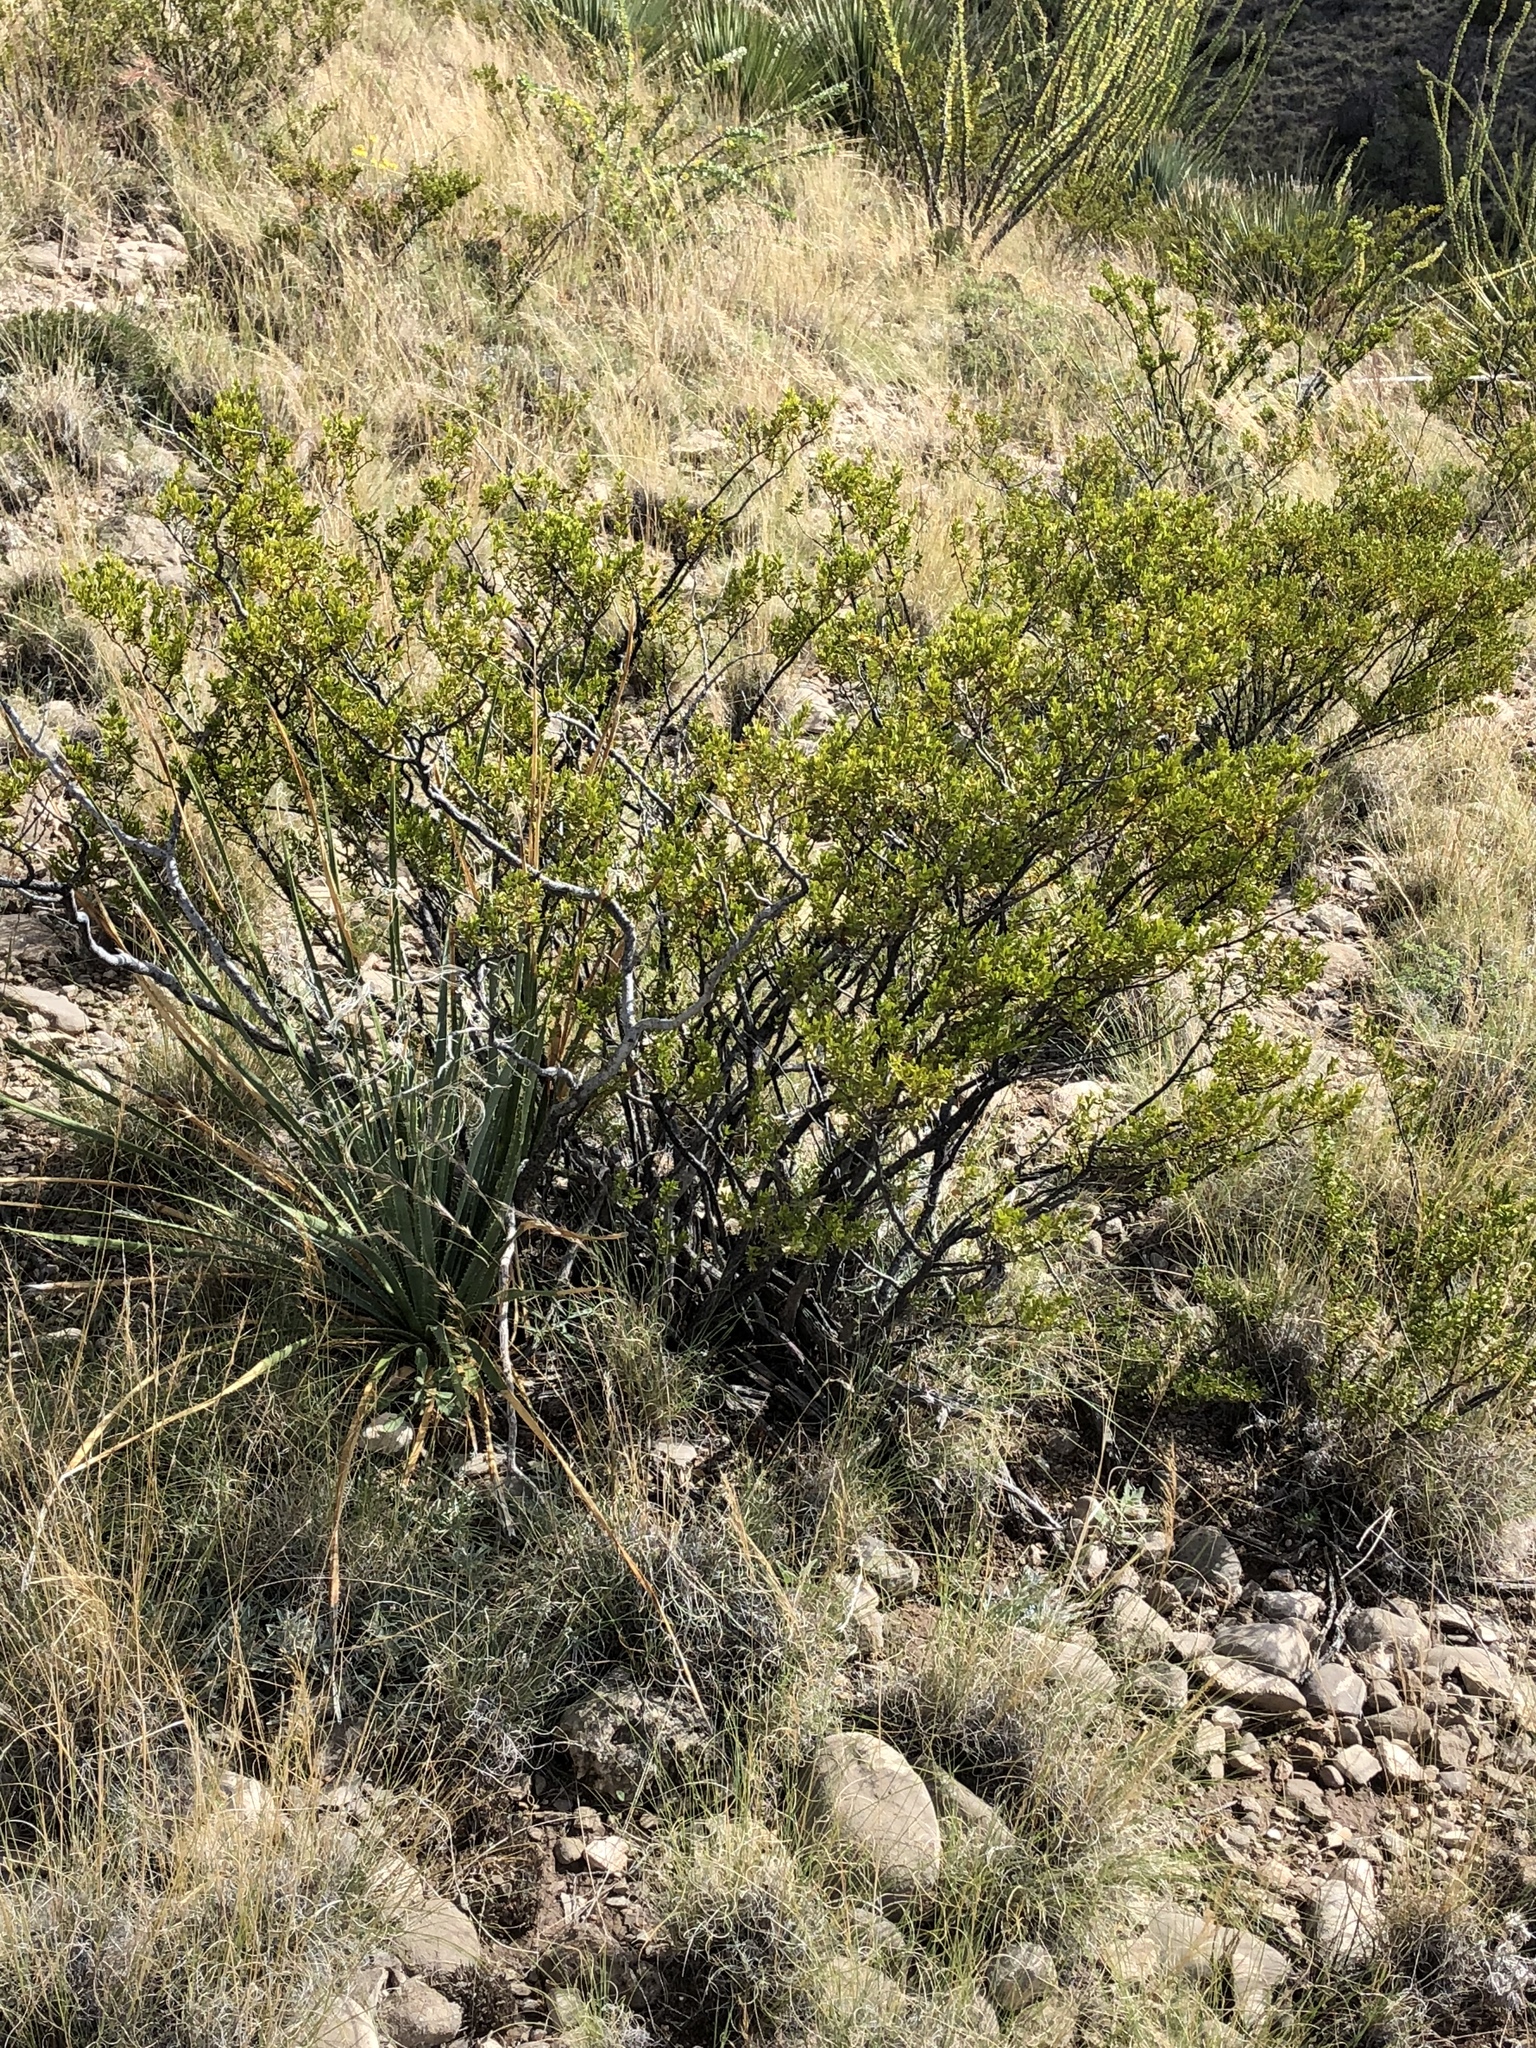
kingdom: Plantae
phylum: Tracheophyta
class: Magnoliopsida
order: Zygophyllales
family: Zygophyllaceae
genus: Larrea
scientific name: Larrea tridentata
